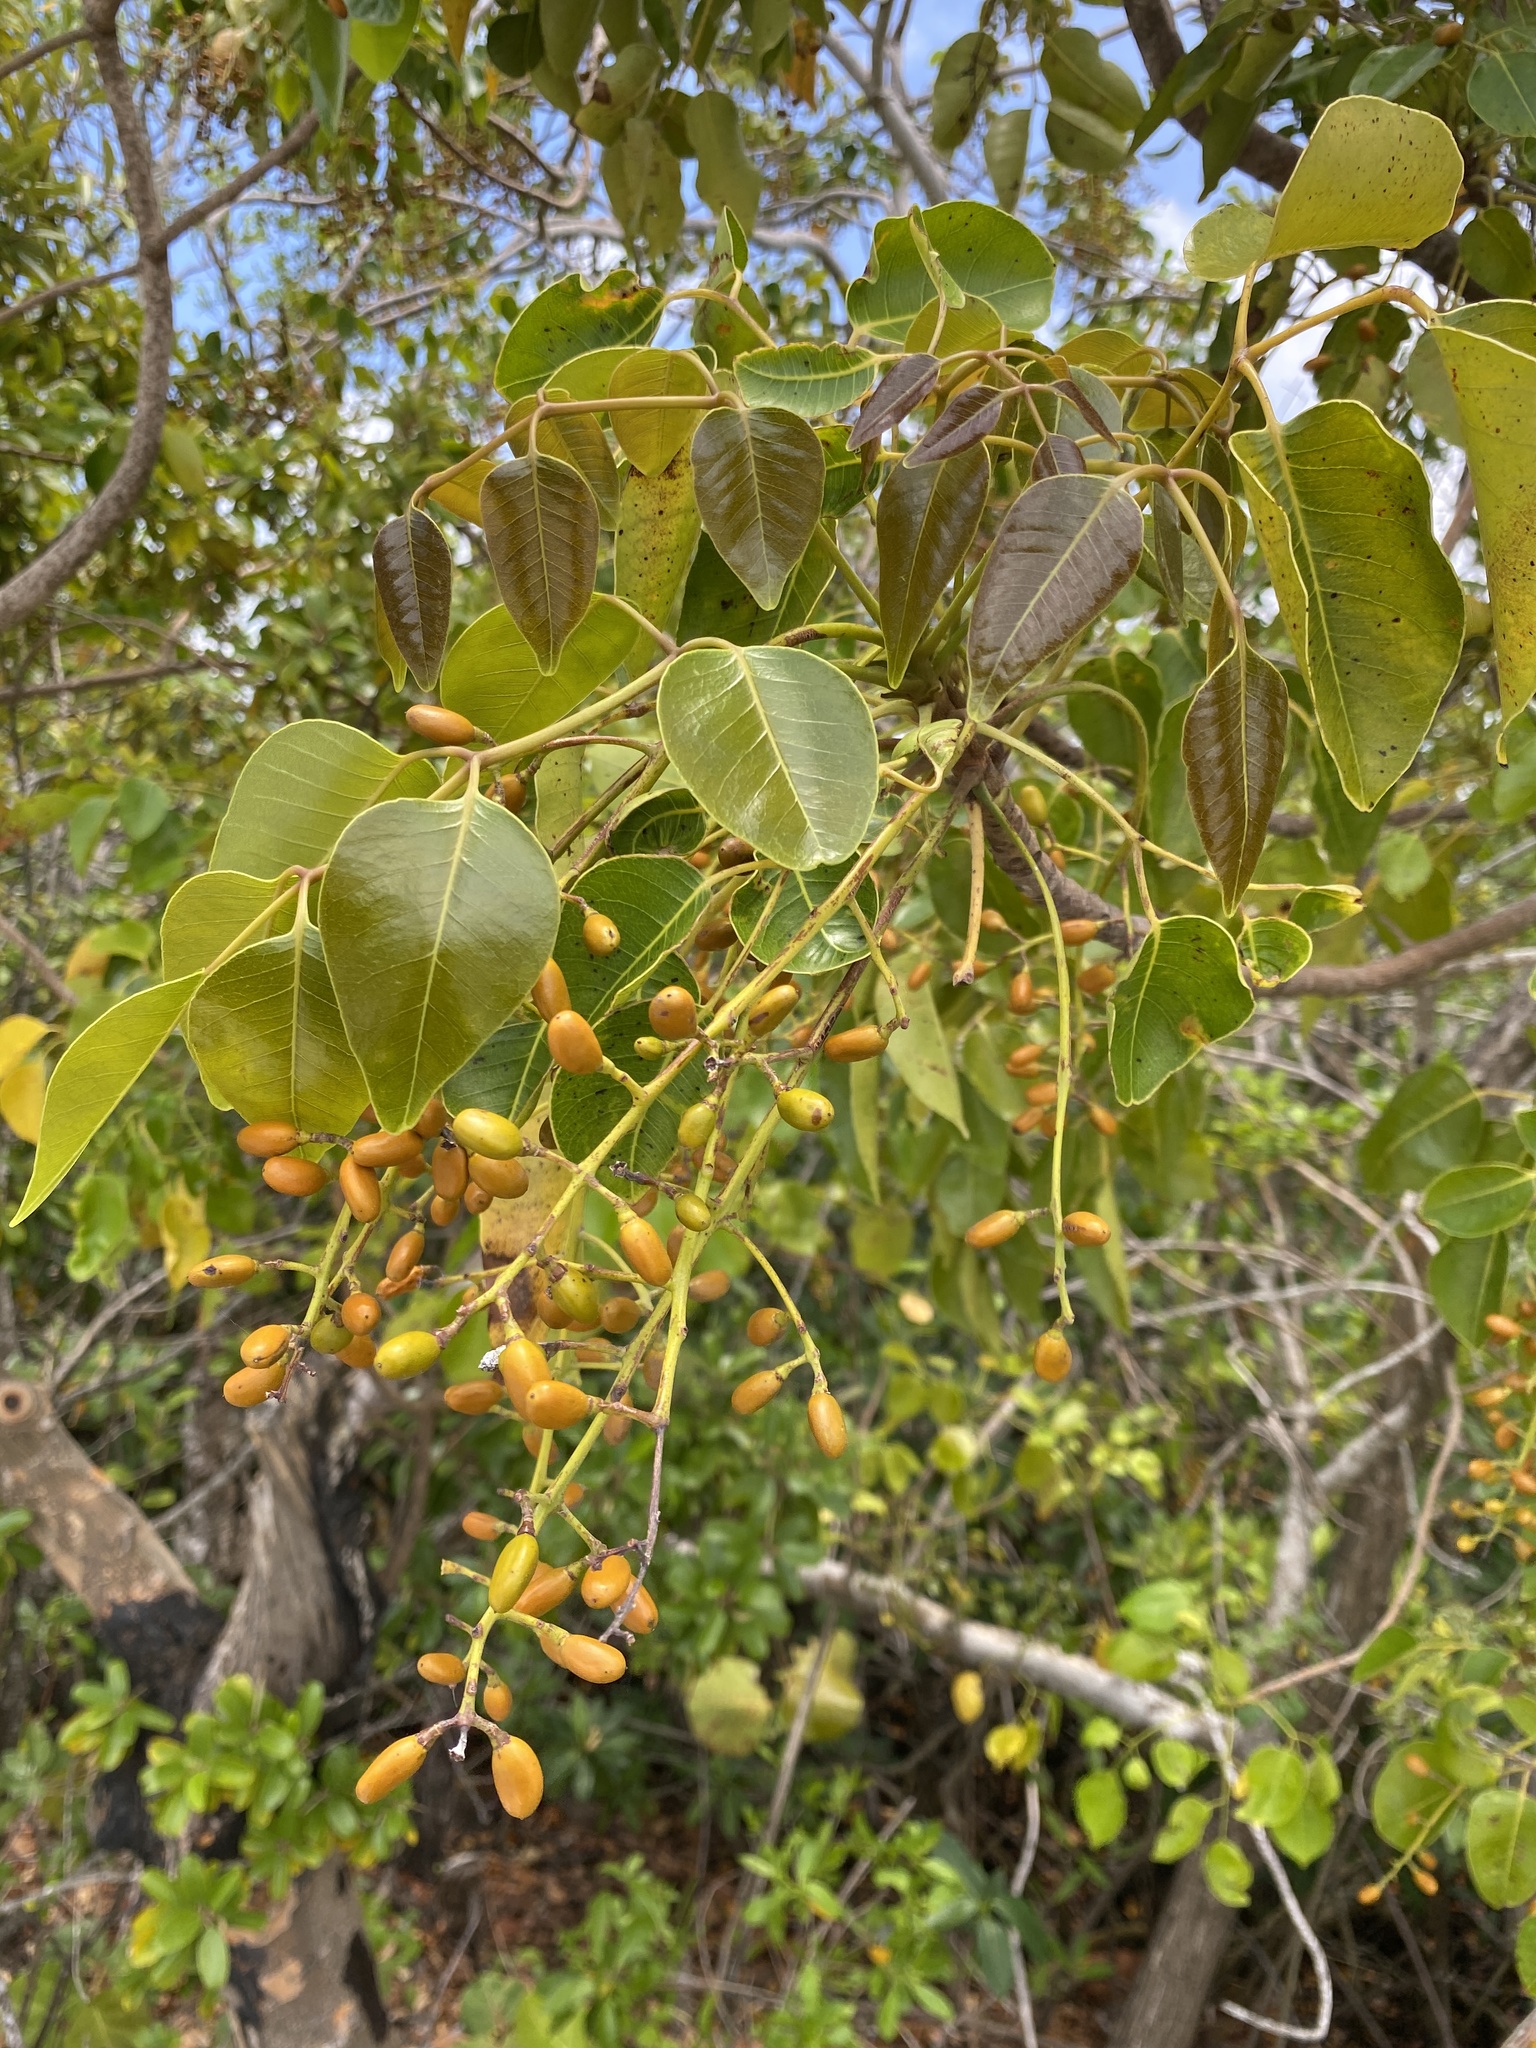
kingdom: Plantae
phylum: Tracheophyta
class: Magnoliopsida
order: Sapindales
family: Anacardiaceae
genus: Metopium
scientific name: Metopium toxiferum
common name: Florida poisontree
